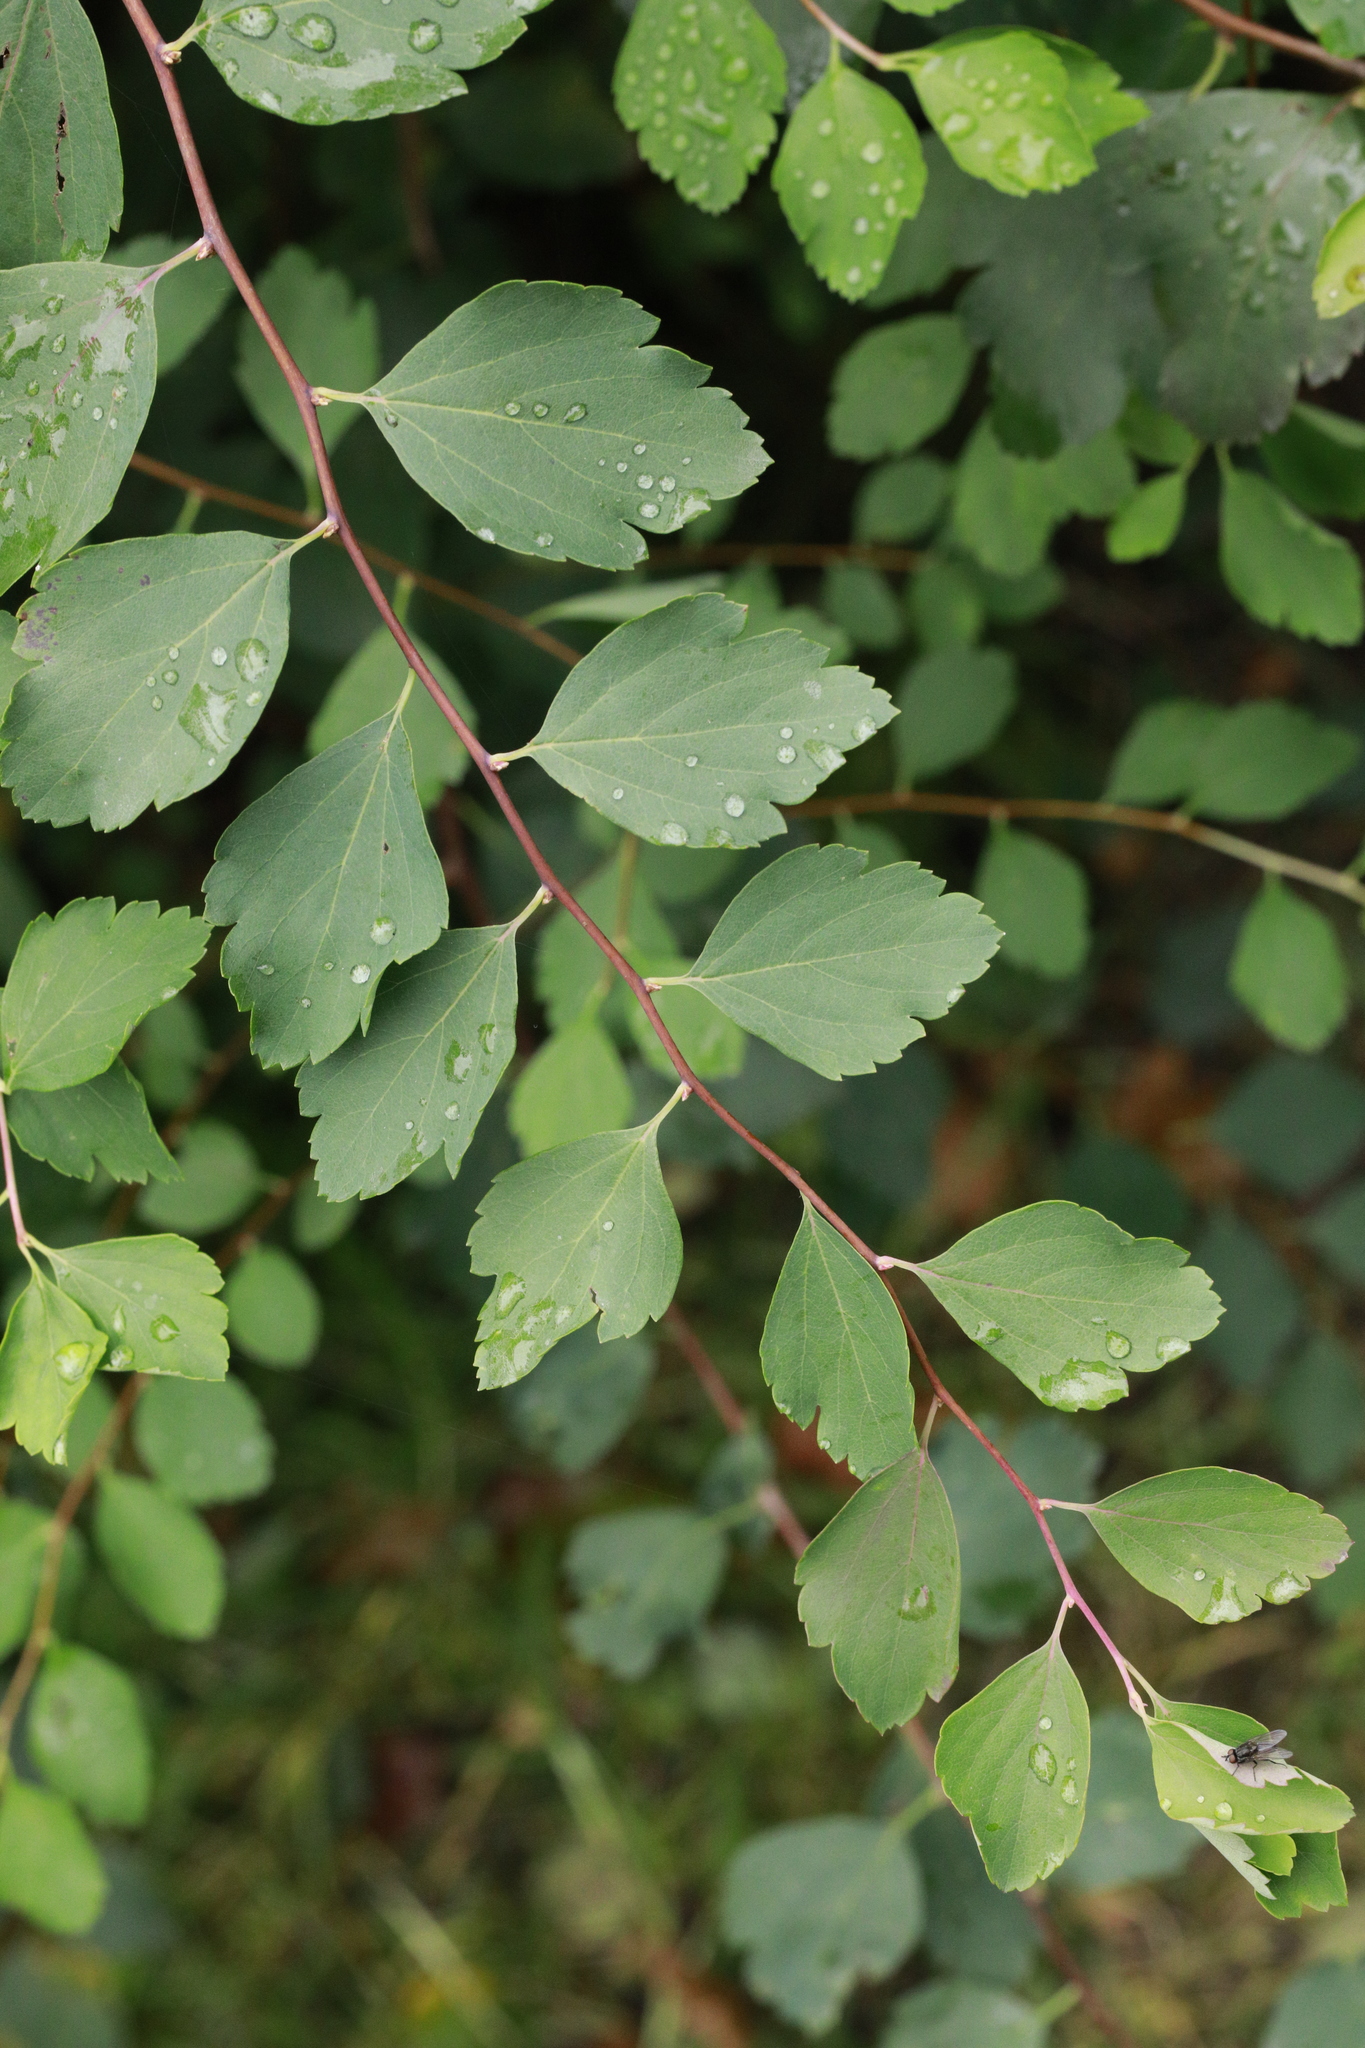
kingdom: Plantae
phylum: Tracheophyta
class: Magnoliopsida
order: Dipsacales
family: Caprifoliaceae
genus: Symphoricarpos
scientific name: Symphoricarpos albus
